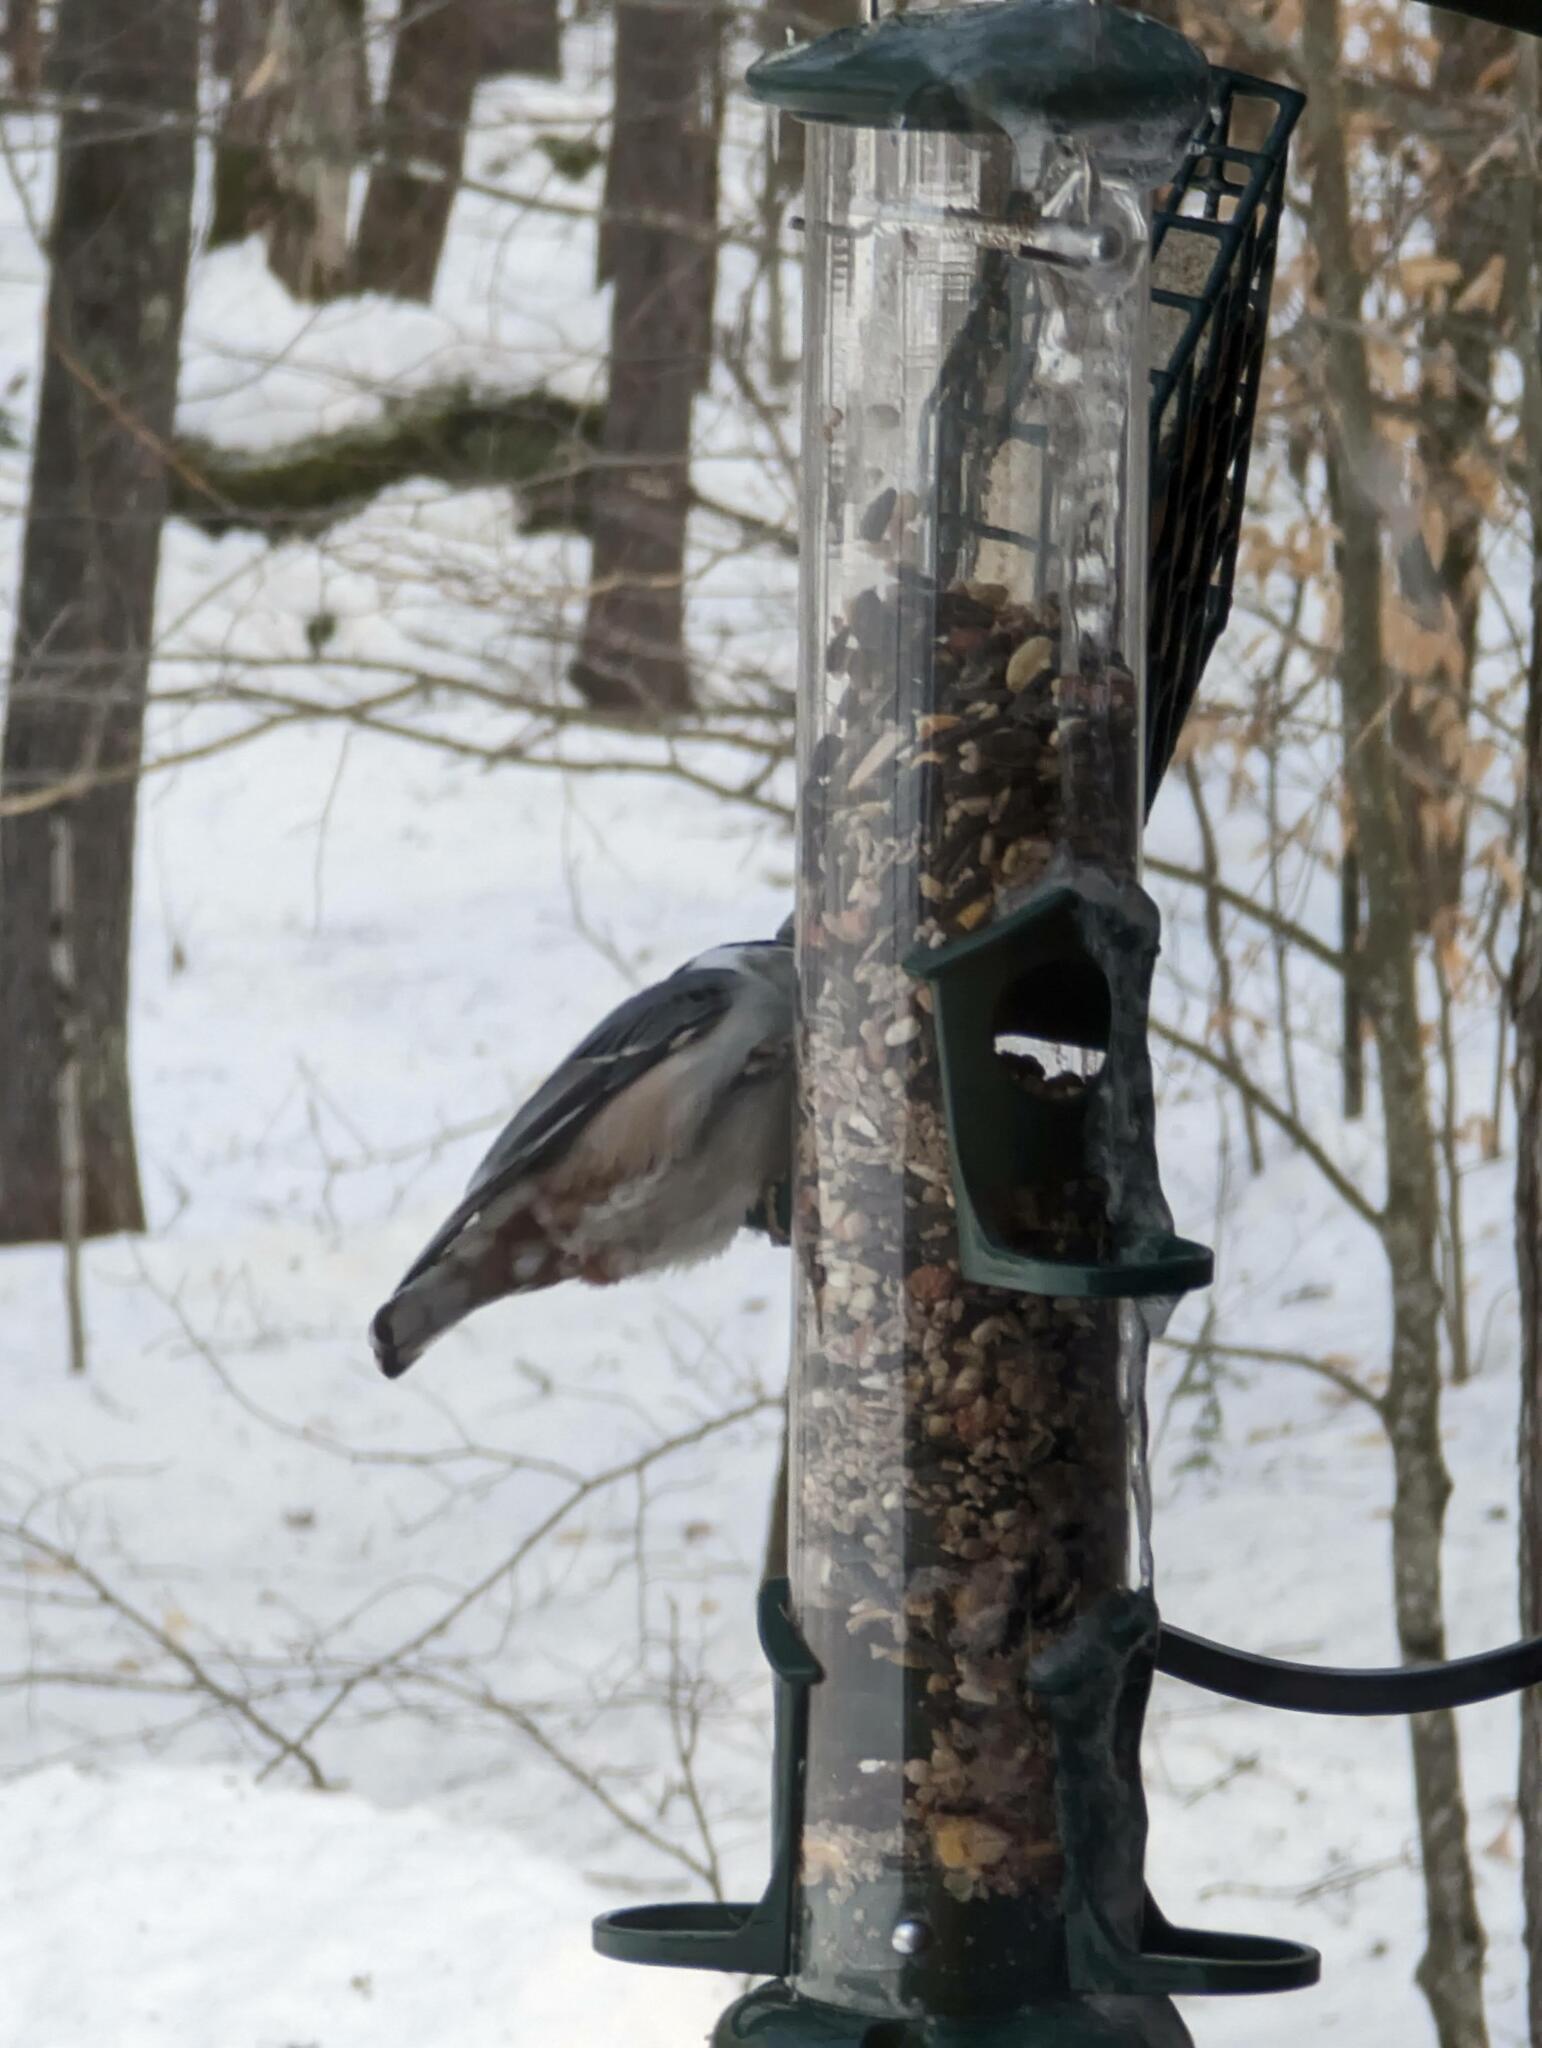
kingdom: Animalia
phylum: Chordata
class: Aves
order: Passeriformes
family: Sittidae
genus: Sitta
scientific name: Sitta carolinensis
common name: White-breasted nuthatch
